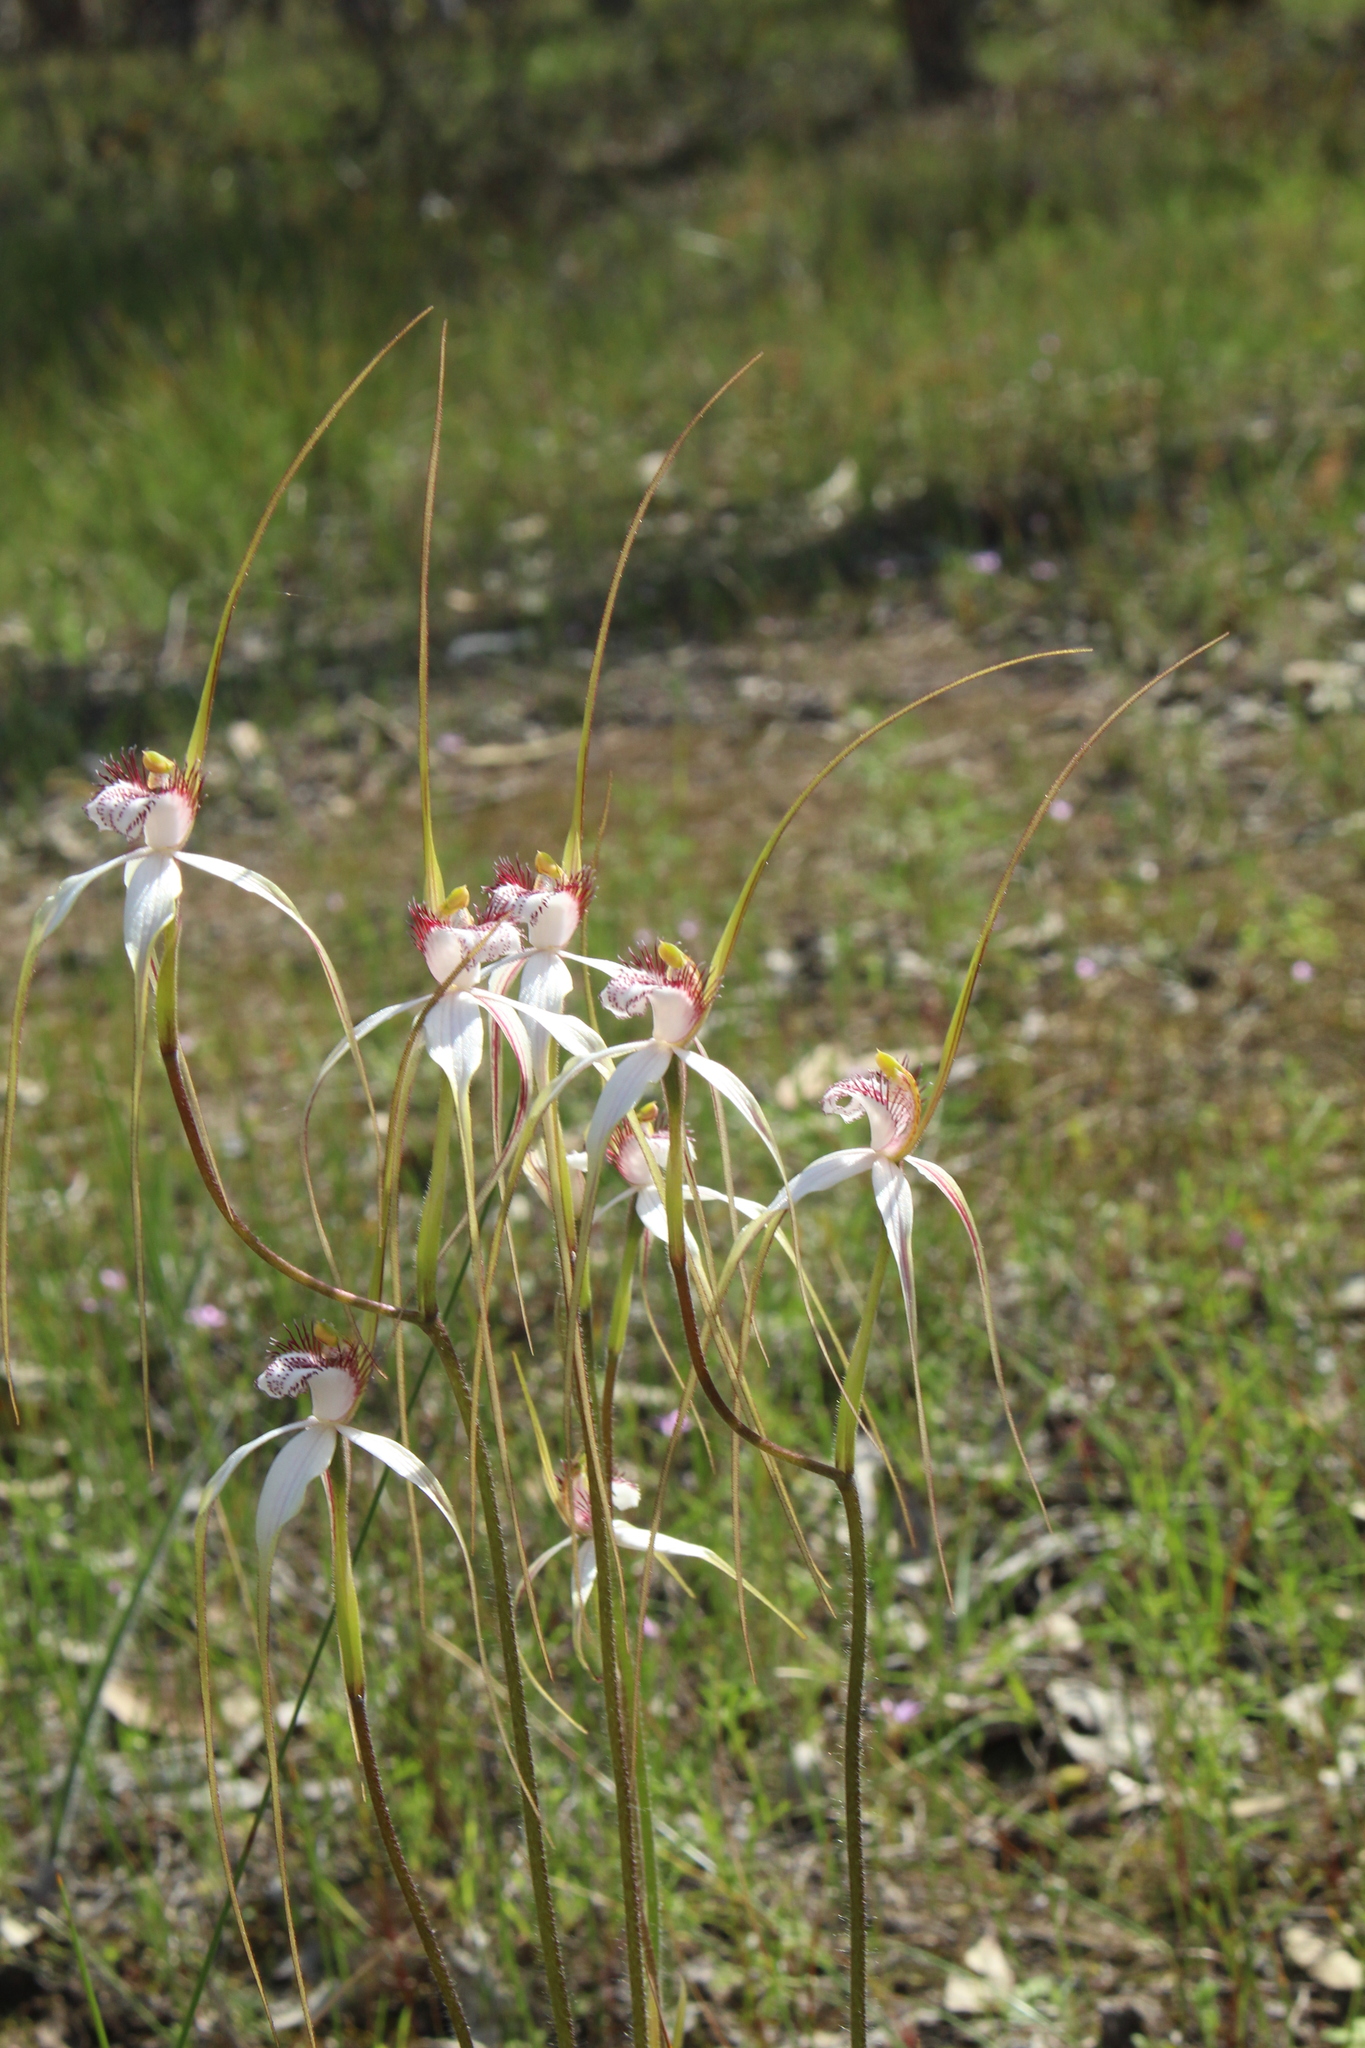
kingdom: Plantae
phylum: Tracheophyta
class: Liliopsida
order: Asparagales
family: Orchidaceae
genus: Caladenia
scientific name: Caladenia longicauda
